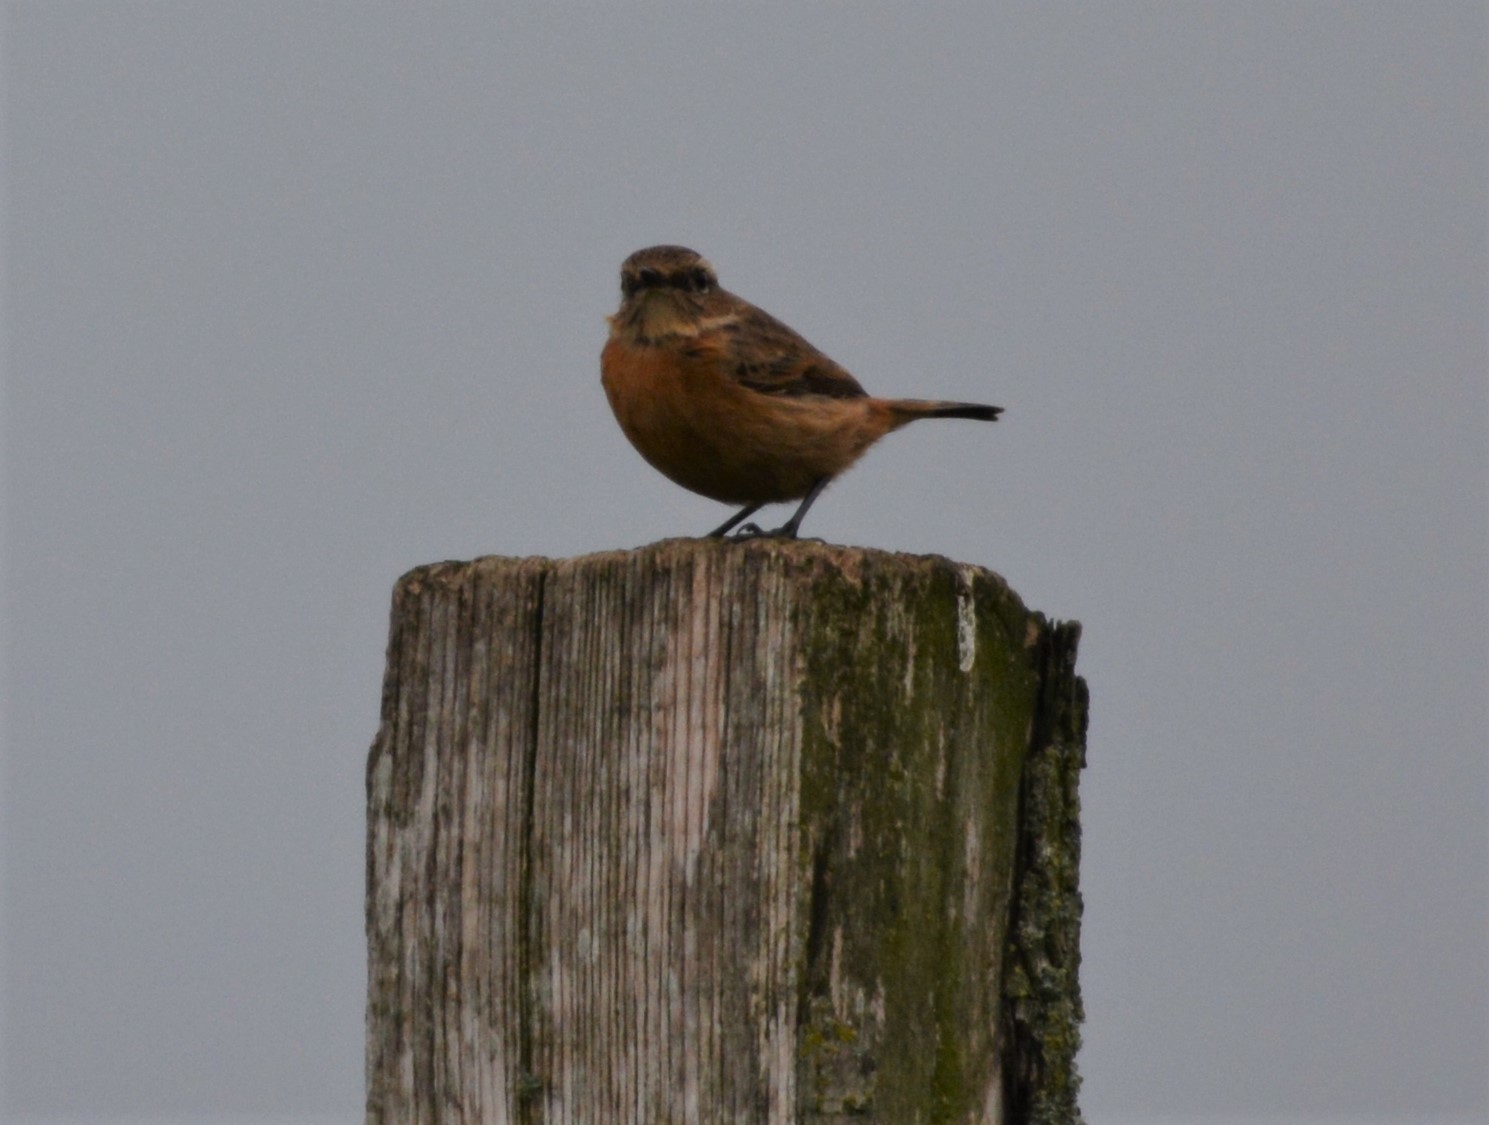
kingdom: Animalia
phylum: Chordata
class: Aves
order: Passeriformes
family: Muscicapidae
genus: Saxicola
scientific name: Saxicola rubicola
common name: European stonechat
